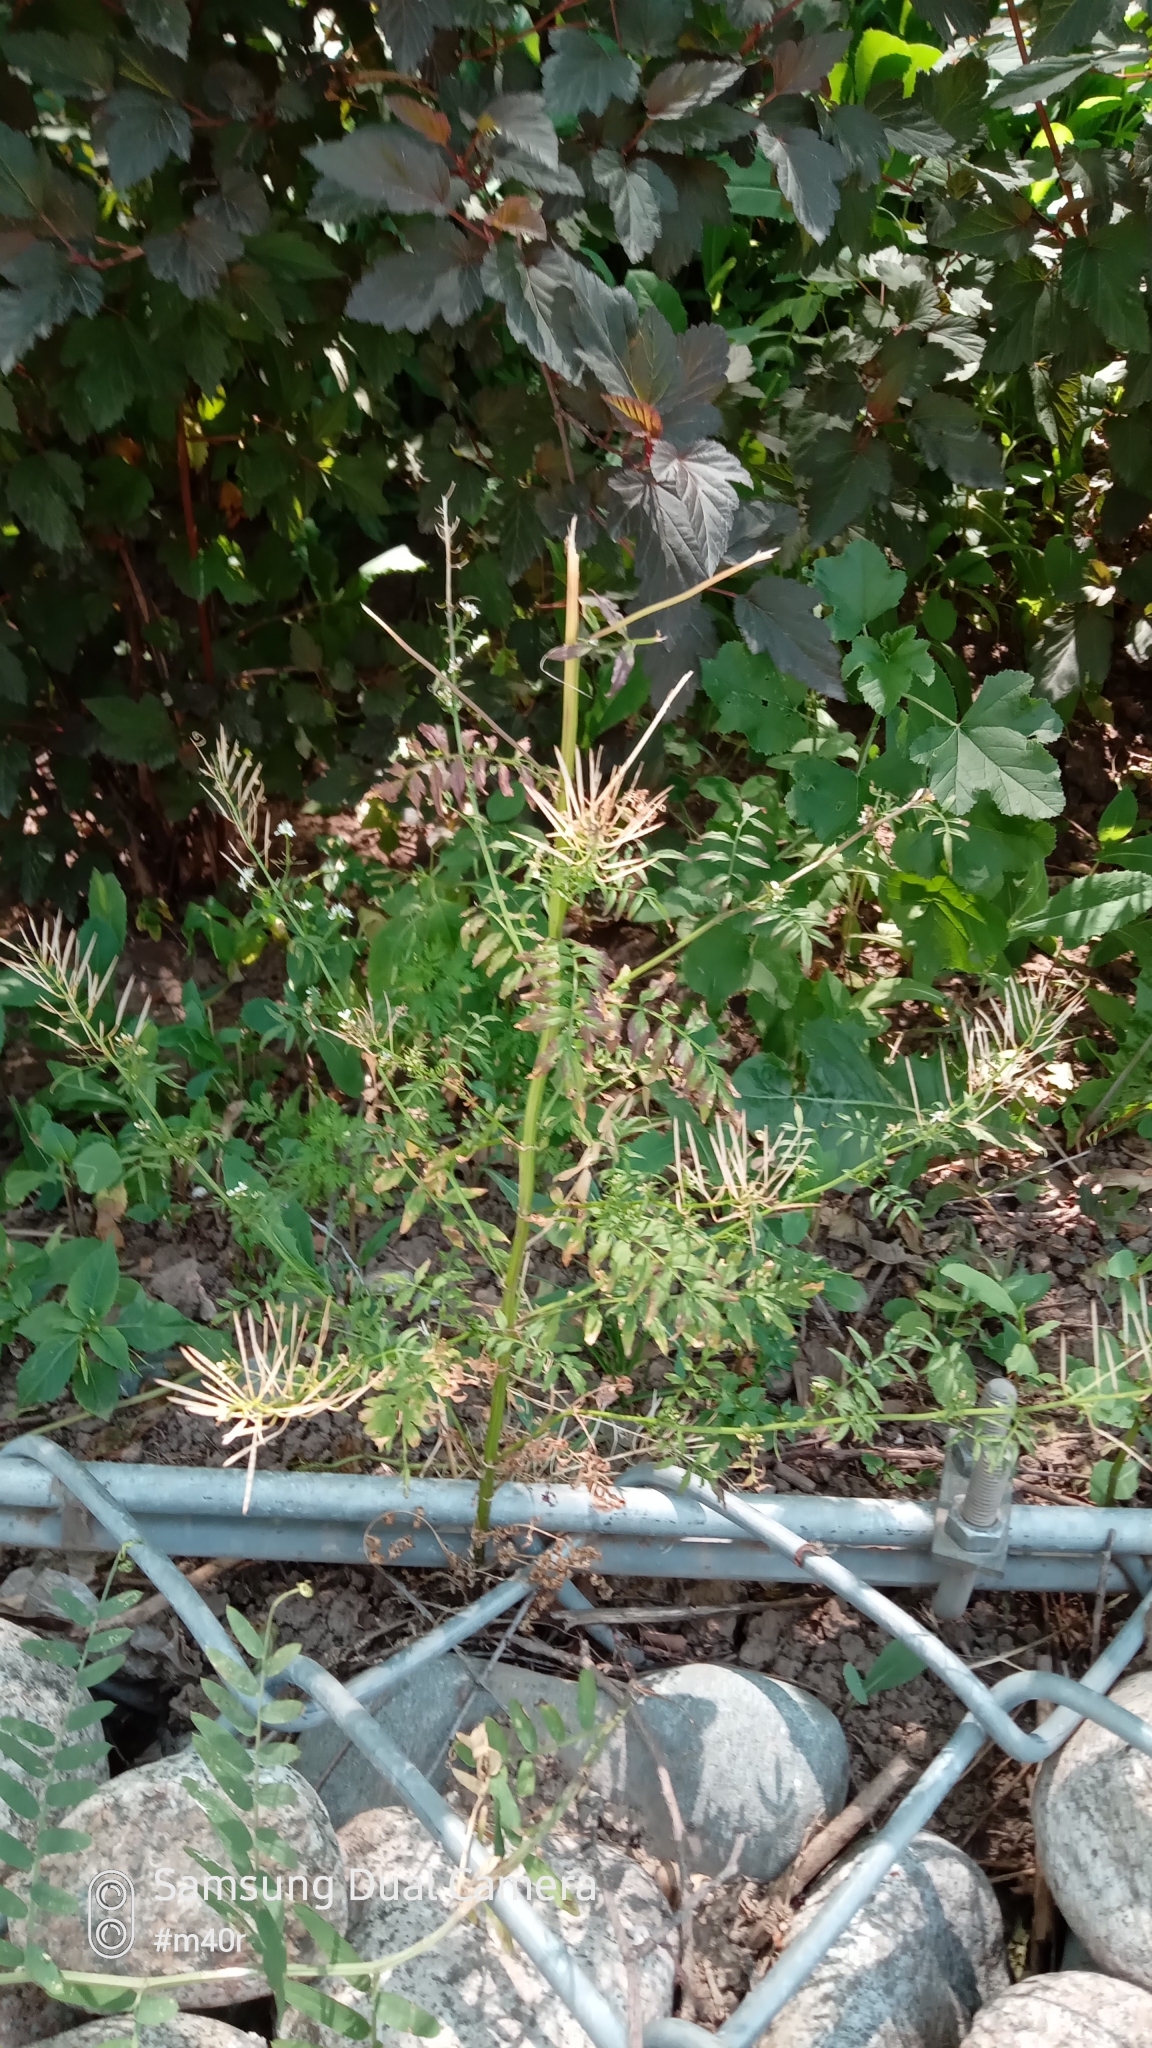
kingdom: Plantae
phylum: Tracheophyta
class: Magnoliopsida
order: Brassicales
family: Brassicaceae
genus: Cardamine
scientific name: Cardamine impatiens
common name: Narrow-leaved bitter-cress
